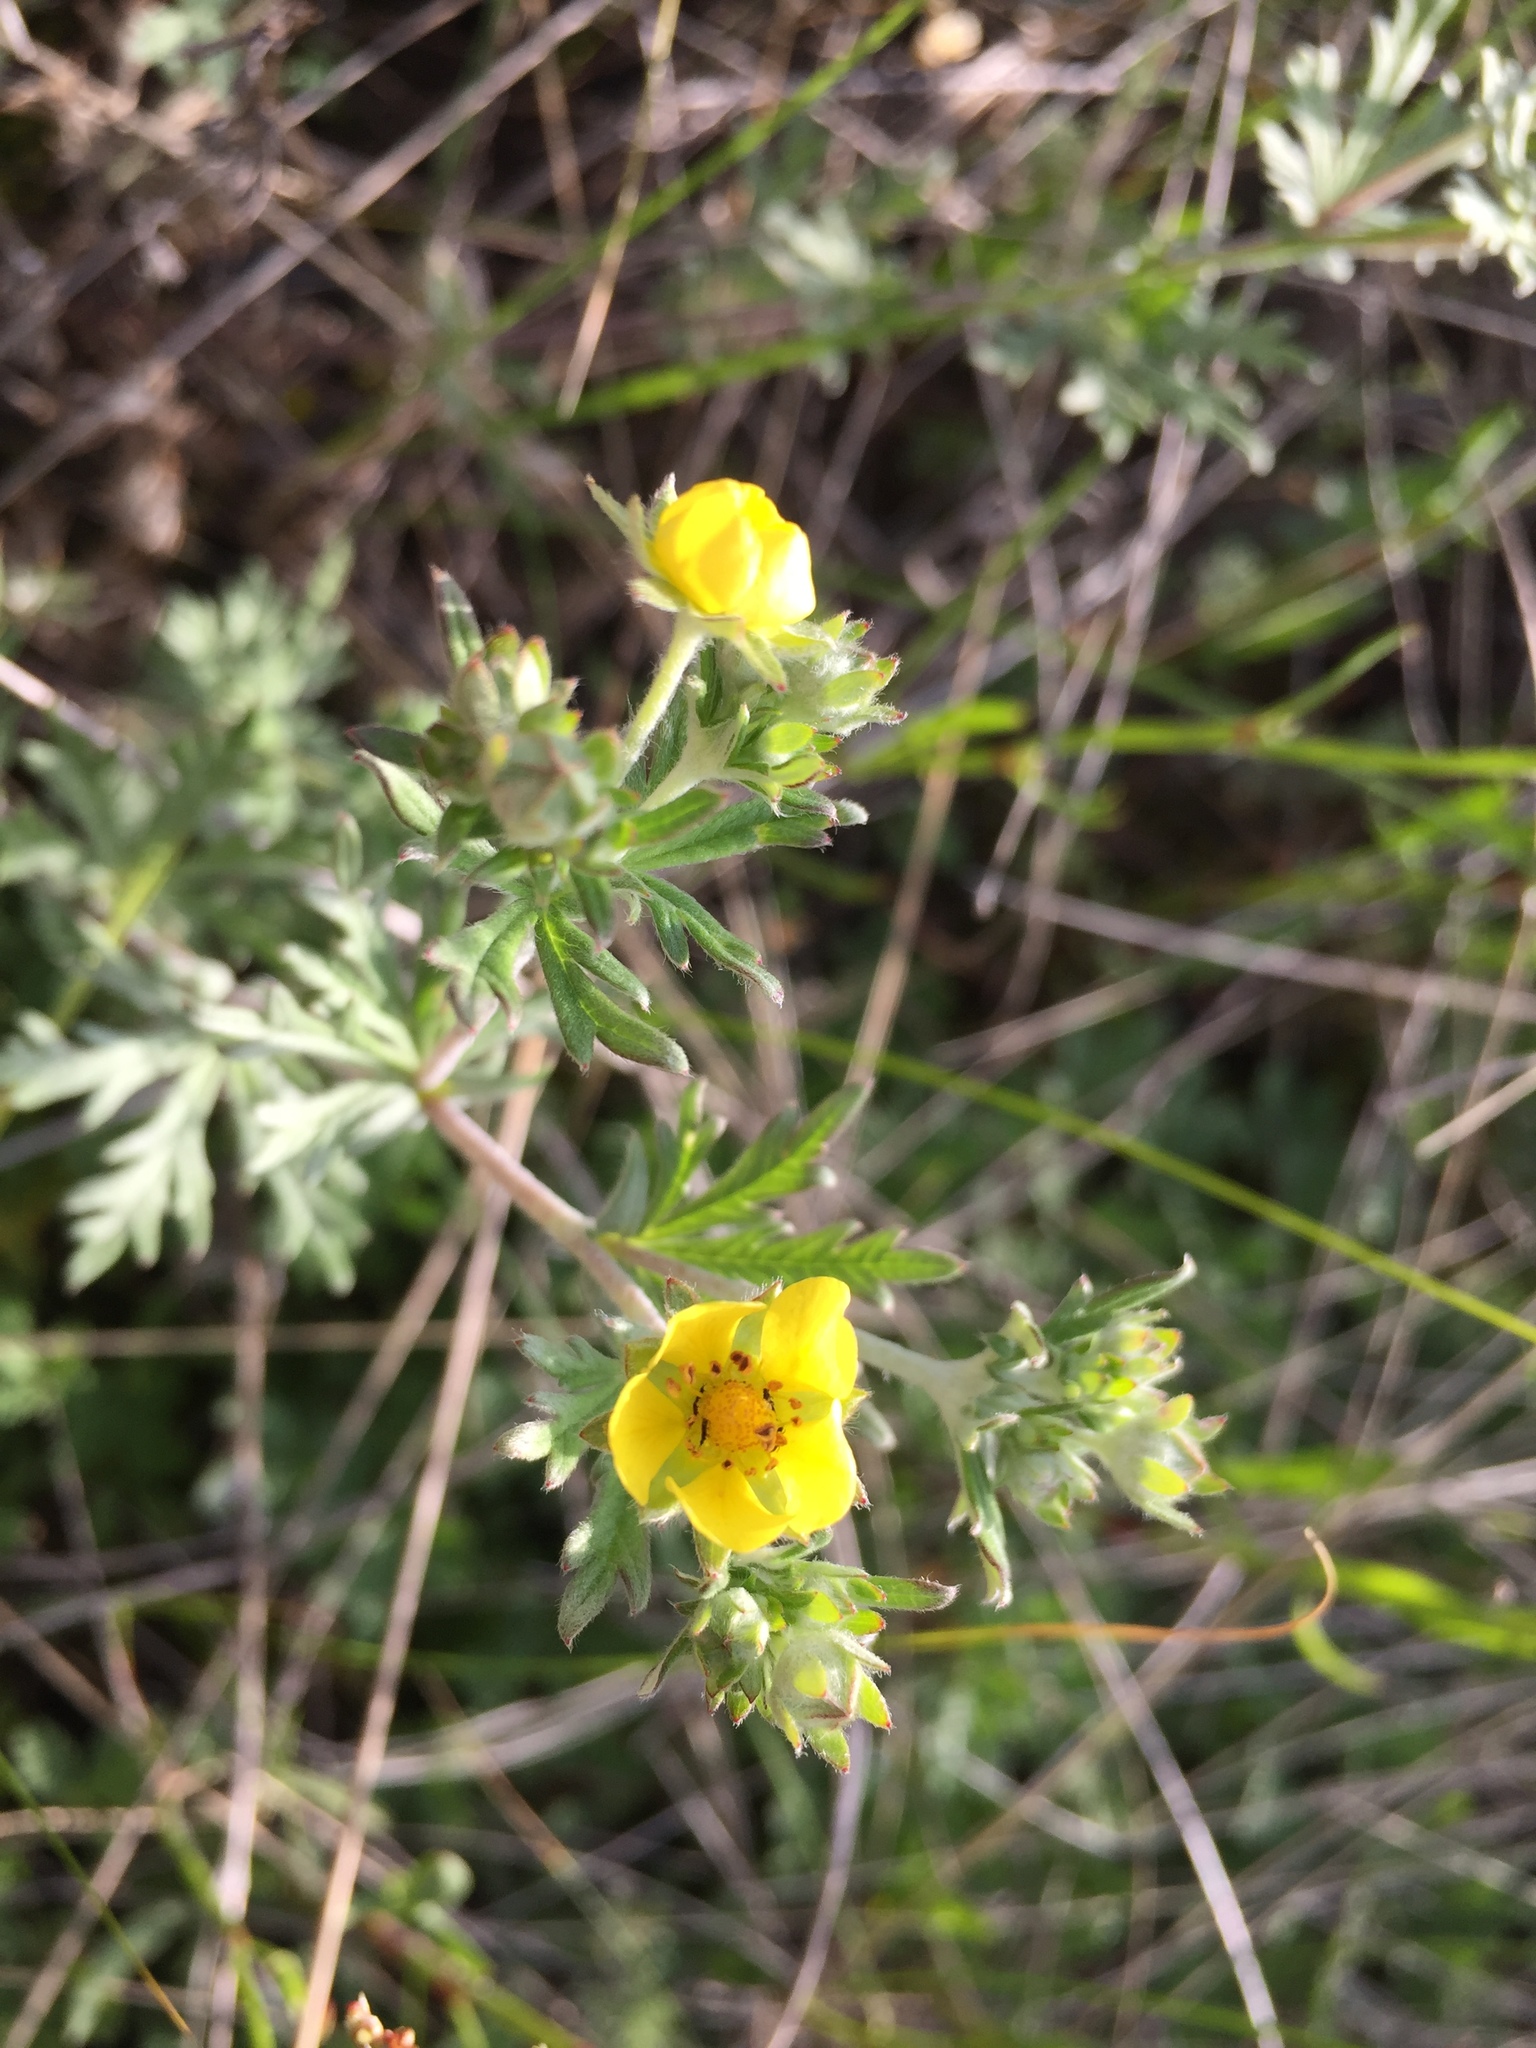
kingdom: Plantae
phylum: Tracheophyta
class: Magnoliopsida
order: Rosales
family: Rosaceae
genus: Potentilla
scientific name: Potentilla argentea
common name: Hoary cinquefoil
